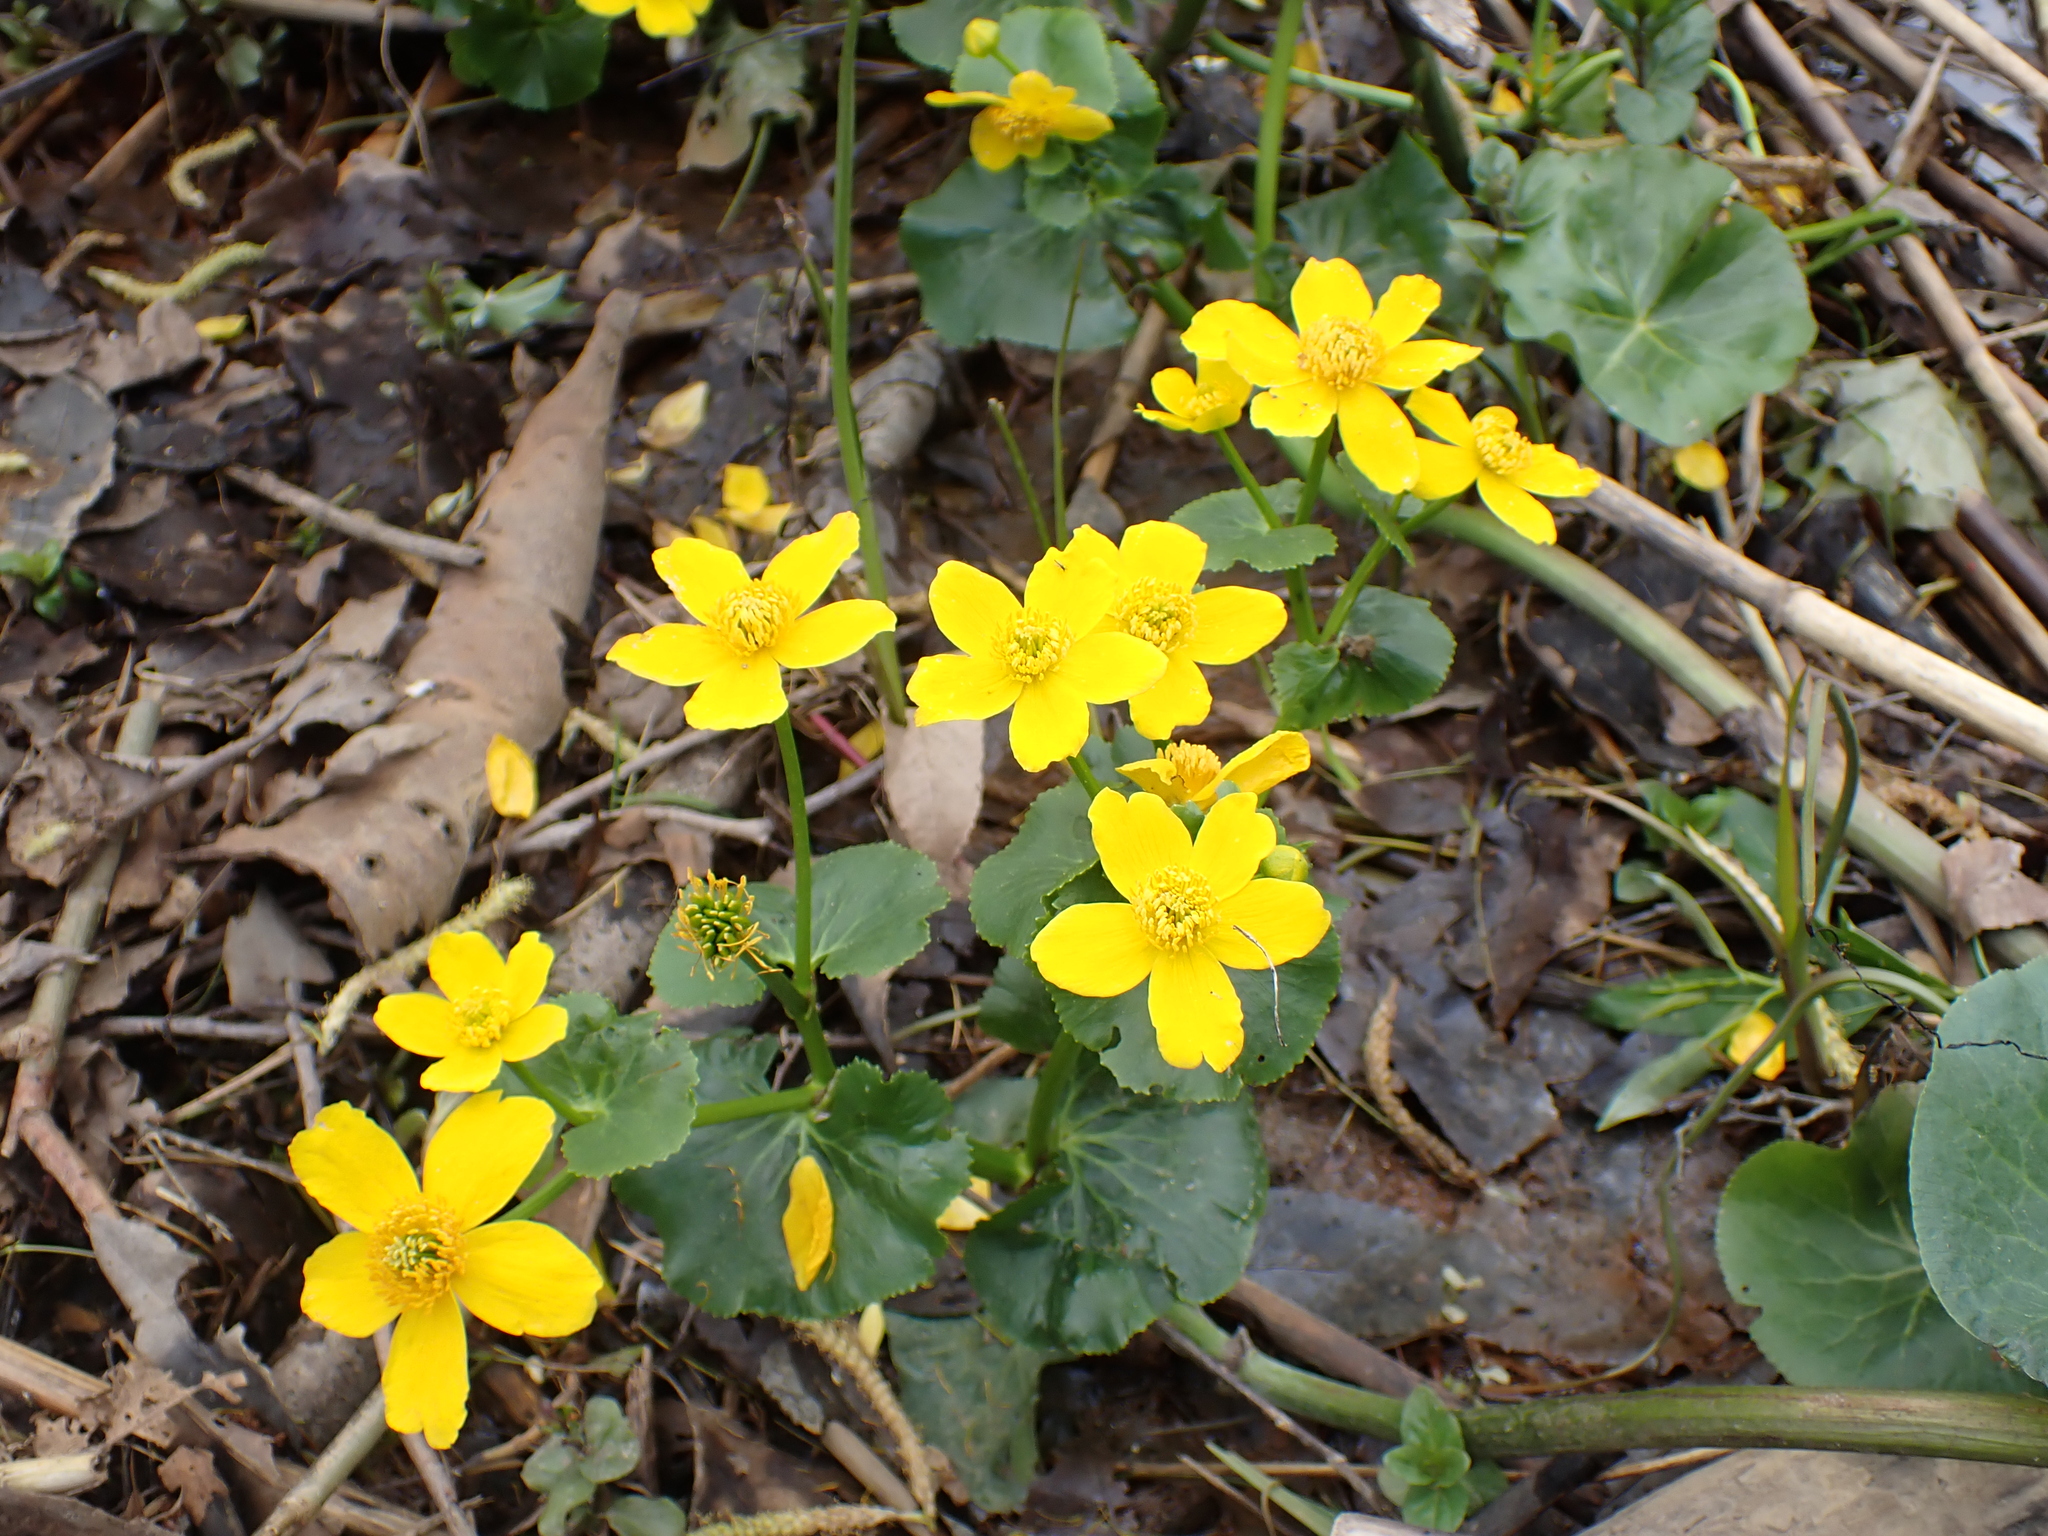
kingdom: Plantae
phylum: Tracheophyta
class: Magnoliopsida
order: Ranunculales
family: Ranunculaceae
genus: Caltha
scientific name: Caltha palustris
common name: Marsh marigold
